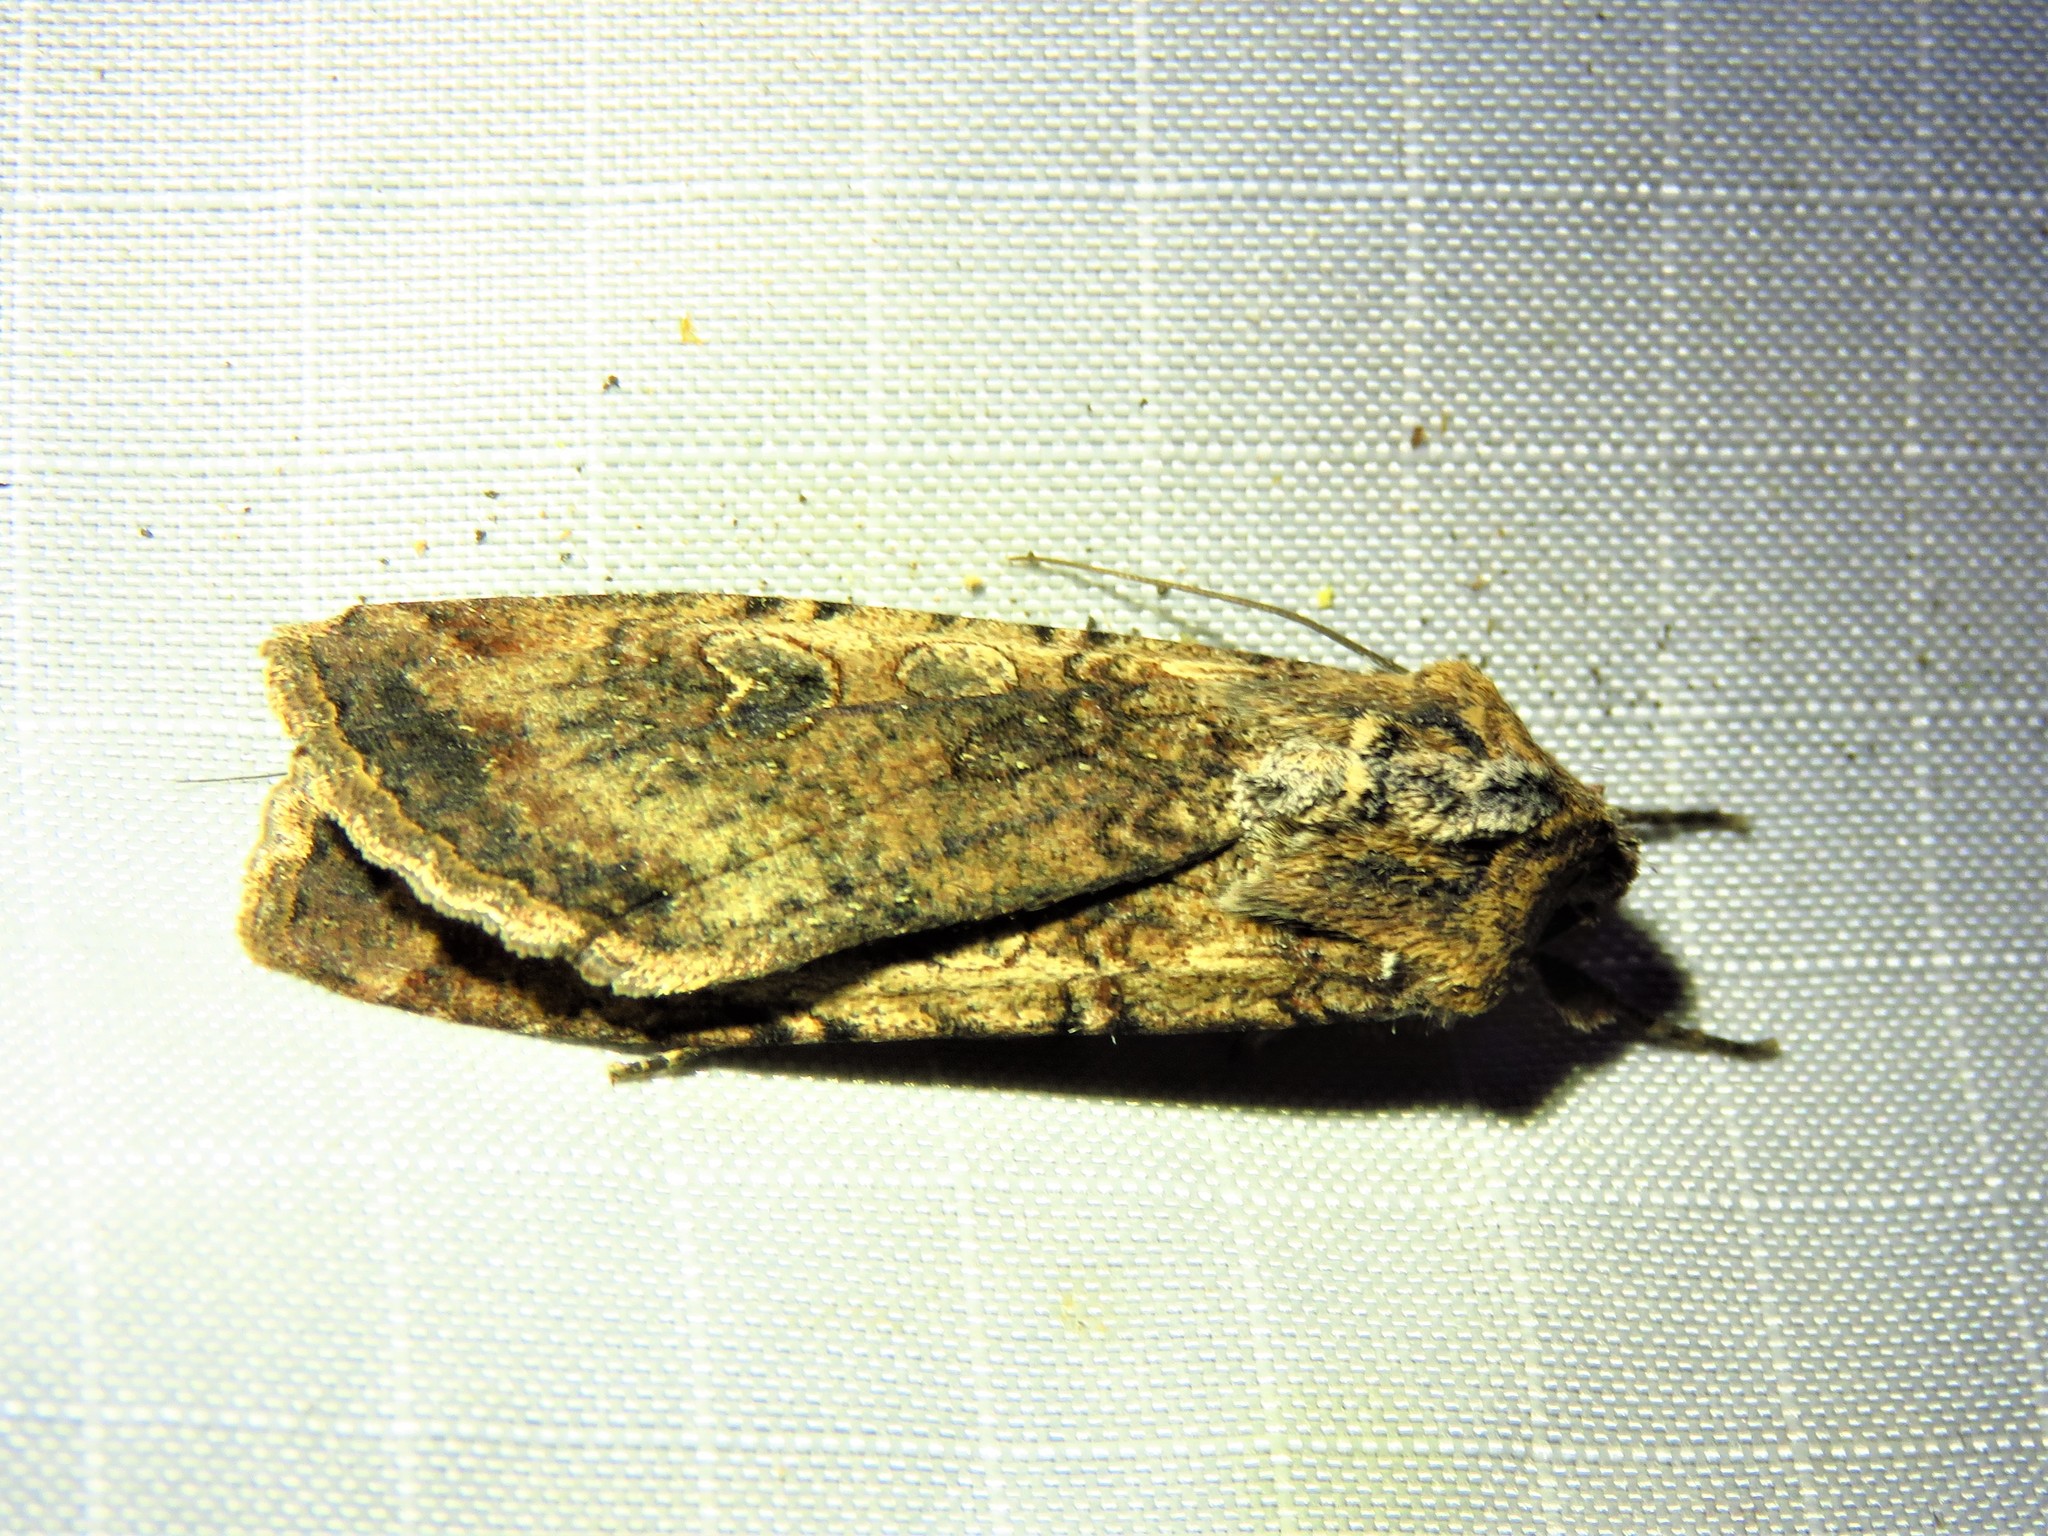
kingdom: Animalia
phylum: Arthropoda
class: Insecta
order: Lepidoptera
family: Noctuidae
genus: Peridroma
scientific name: Peridroma saucia
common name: Pearly underwing
